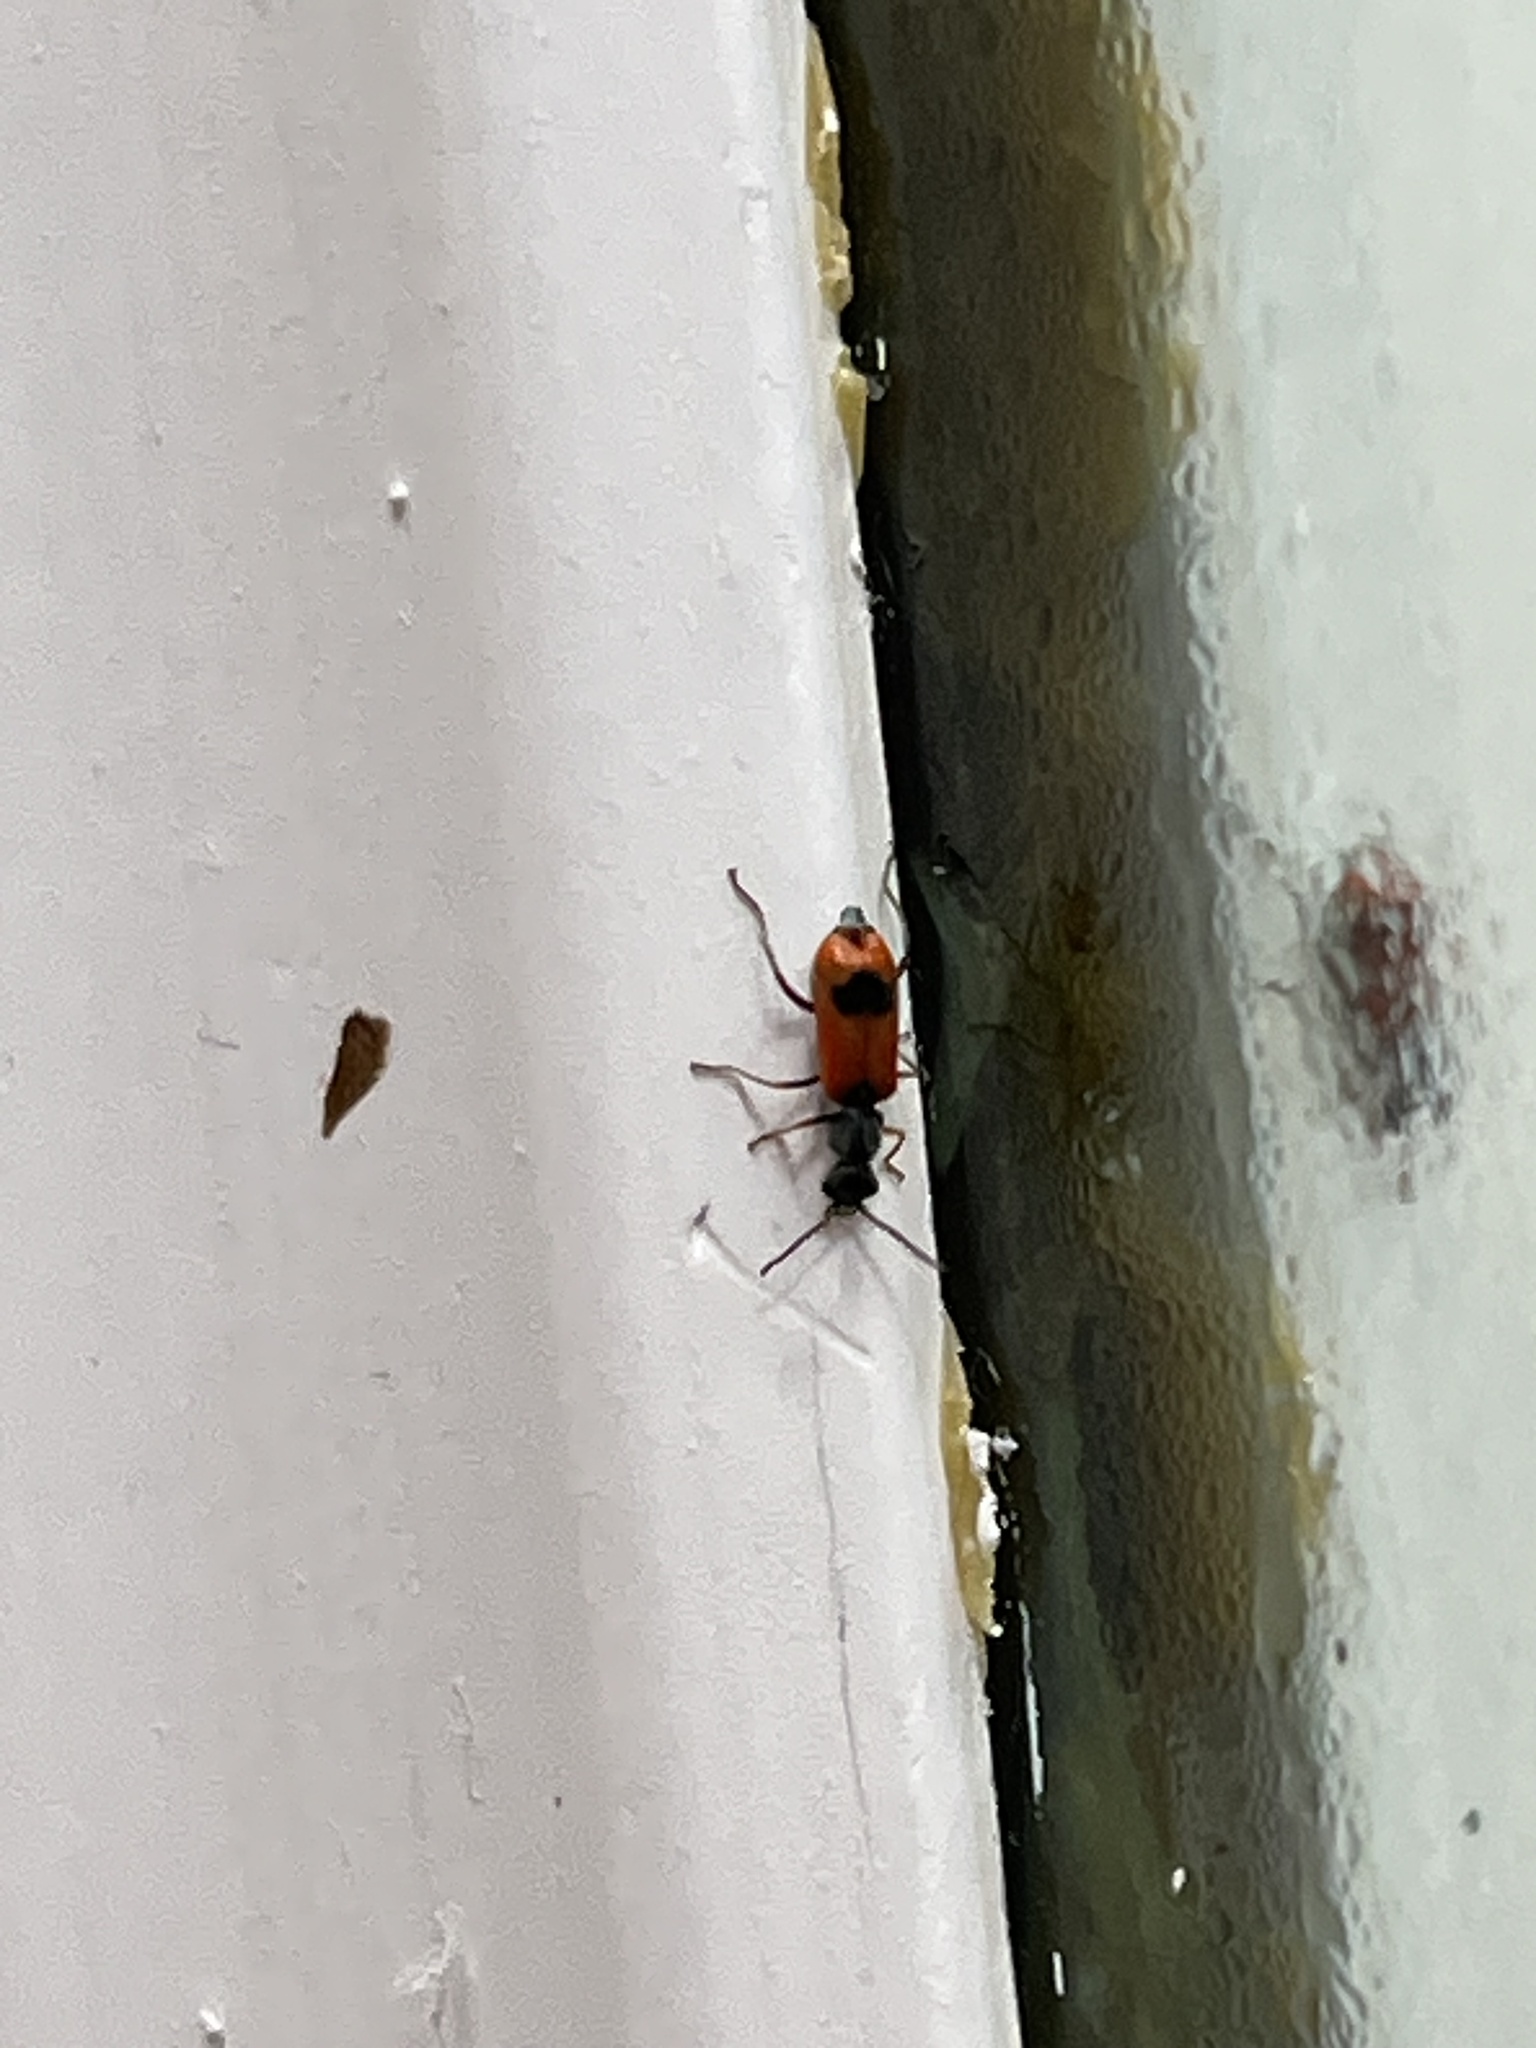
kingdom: Animalia
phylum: Arthropoda
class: Insecta
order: Coleoptera
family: Melyridae
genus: Anthocomus
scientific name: Anthocomus equestris
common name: Black-banded soft-winged flower beetle
